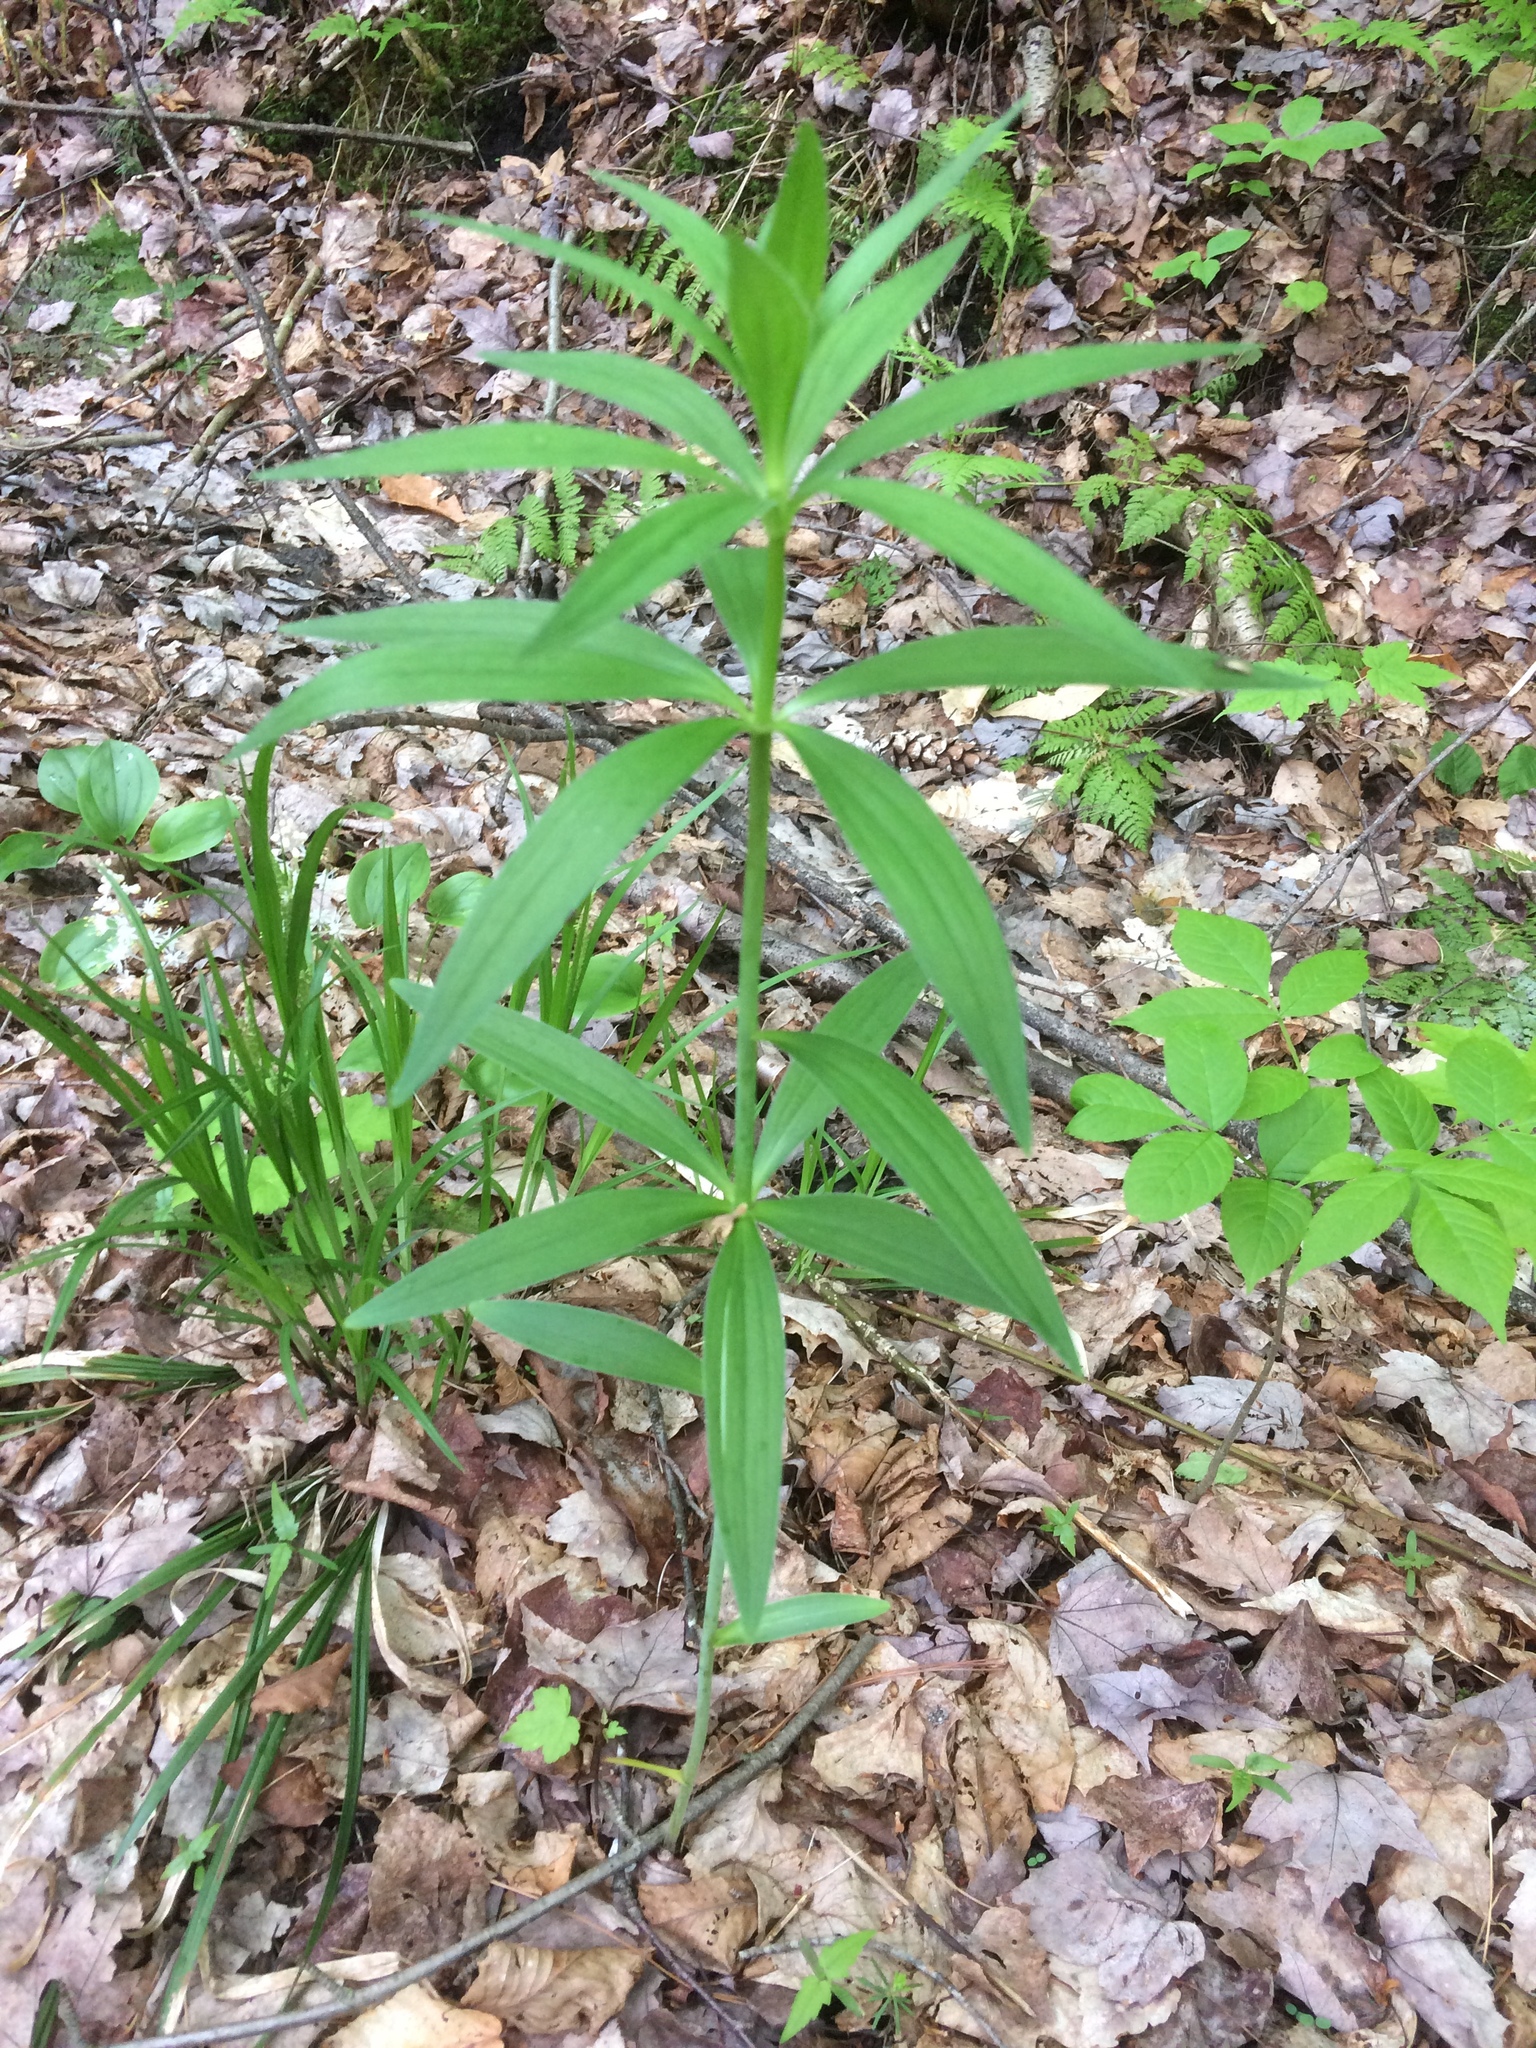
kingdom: Plantae
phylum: Tracheophyta
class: Liliopsida
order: Liliales
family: Liliaceae
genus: Lilium
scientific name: Lilium
